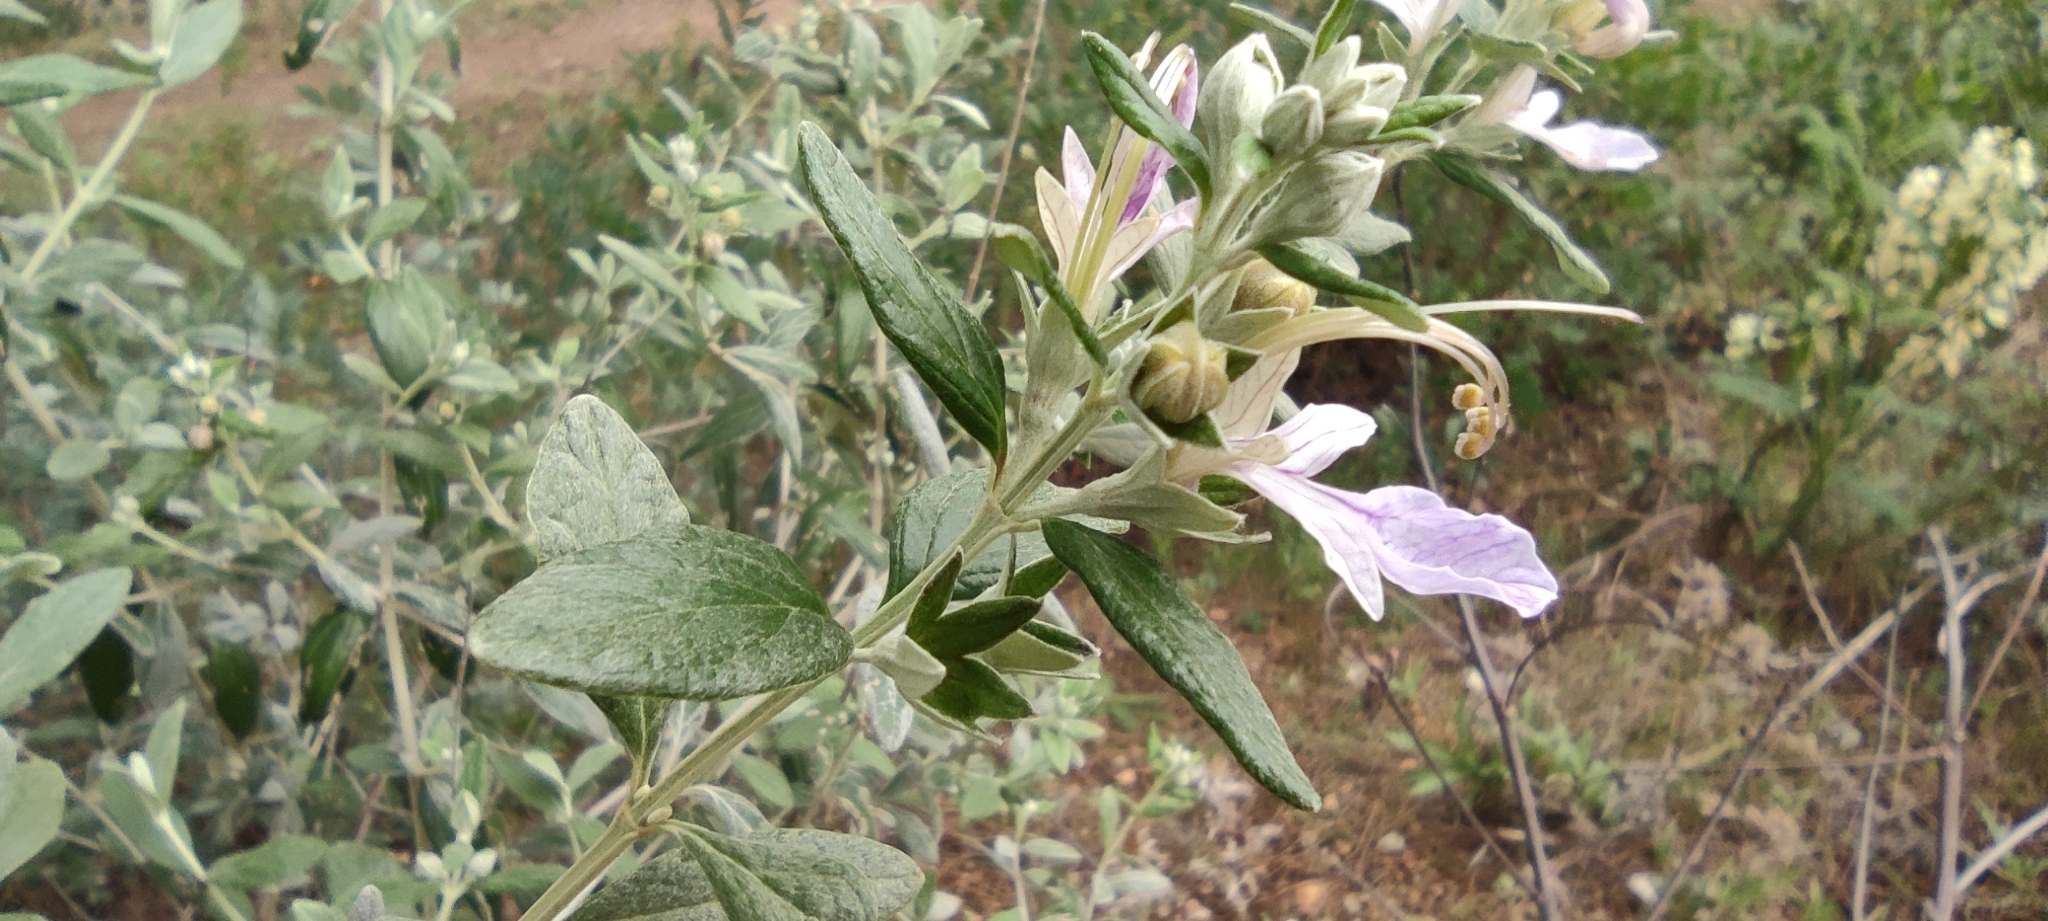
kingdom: Plantae
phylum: Tracheophyta
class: Magnoliopsida
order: Lamiales
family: Lamiaceae
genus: Teucrium
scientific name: Teucrium fruticans
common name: Shrubby germander
